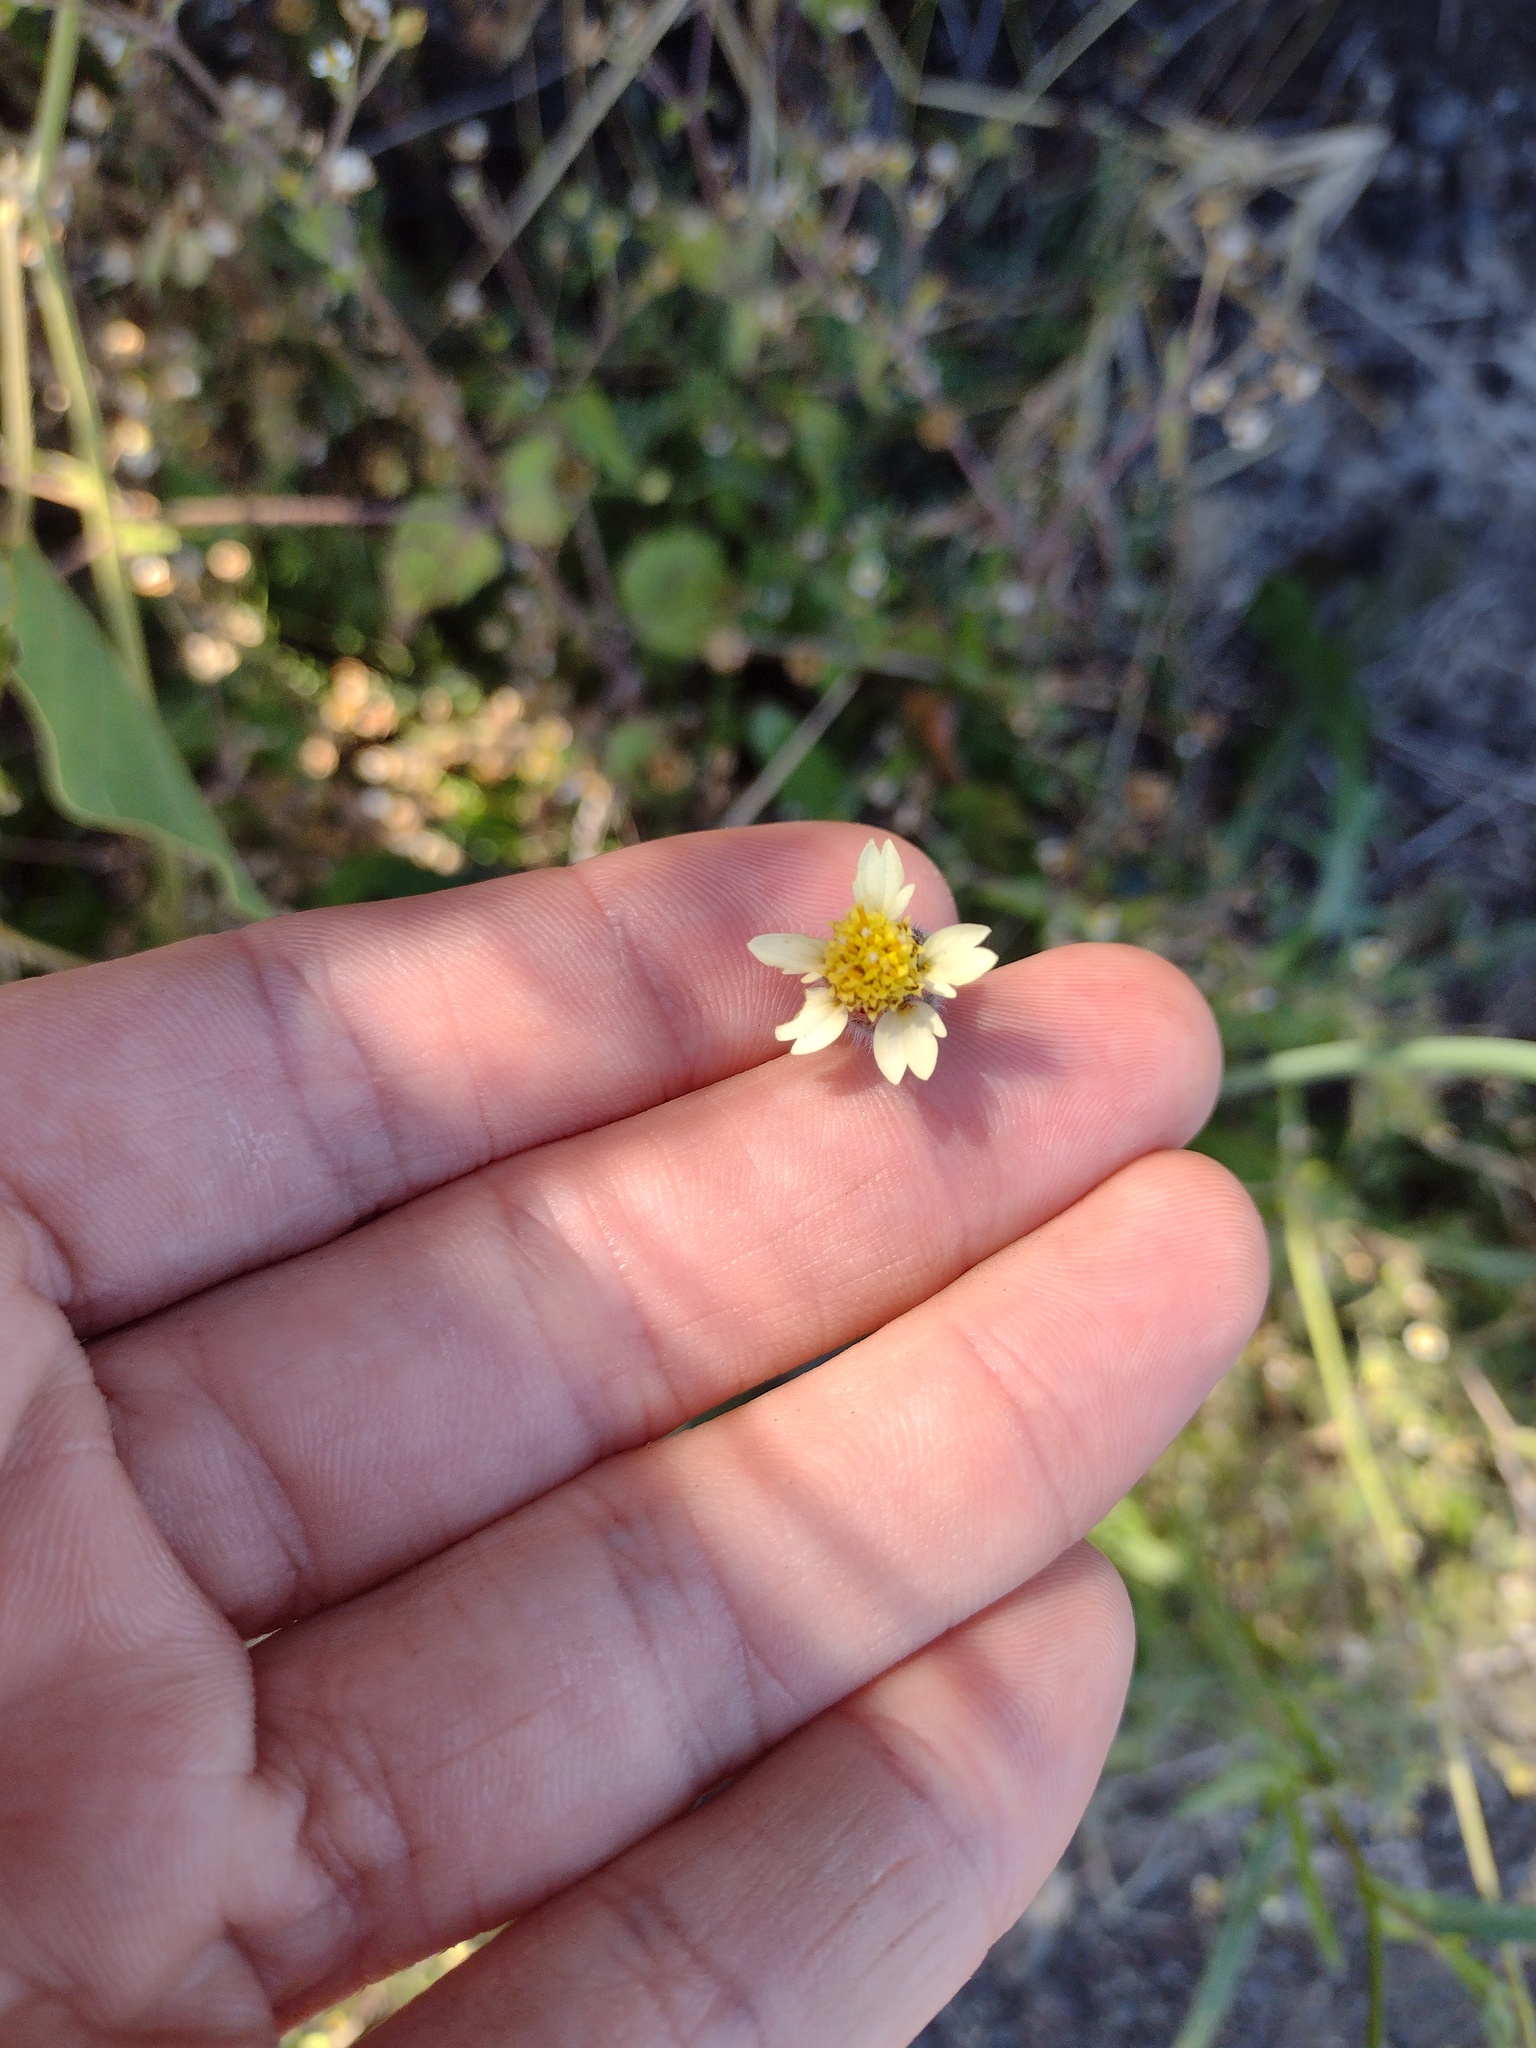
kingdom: Plantae
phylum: Tracheophyta
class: Magnoliopsida
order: Asterales
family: Asteraceae
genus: Tridax
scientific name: Tridax procumbens
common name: Coatbuttons
